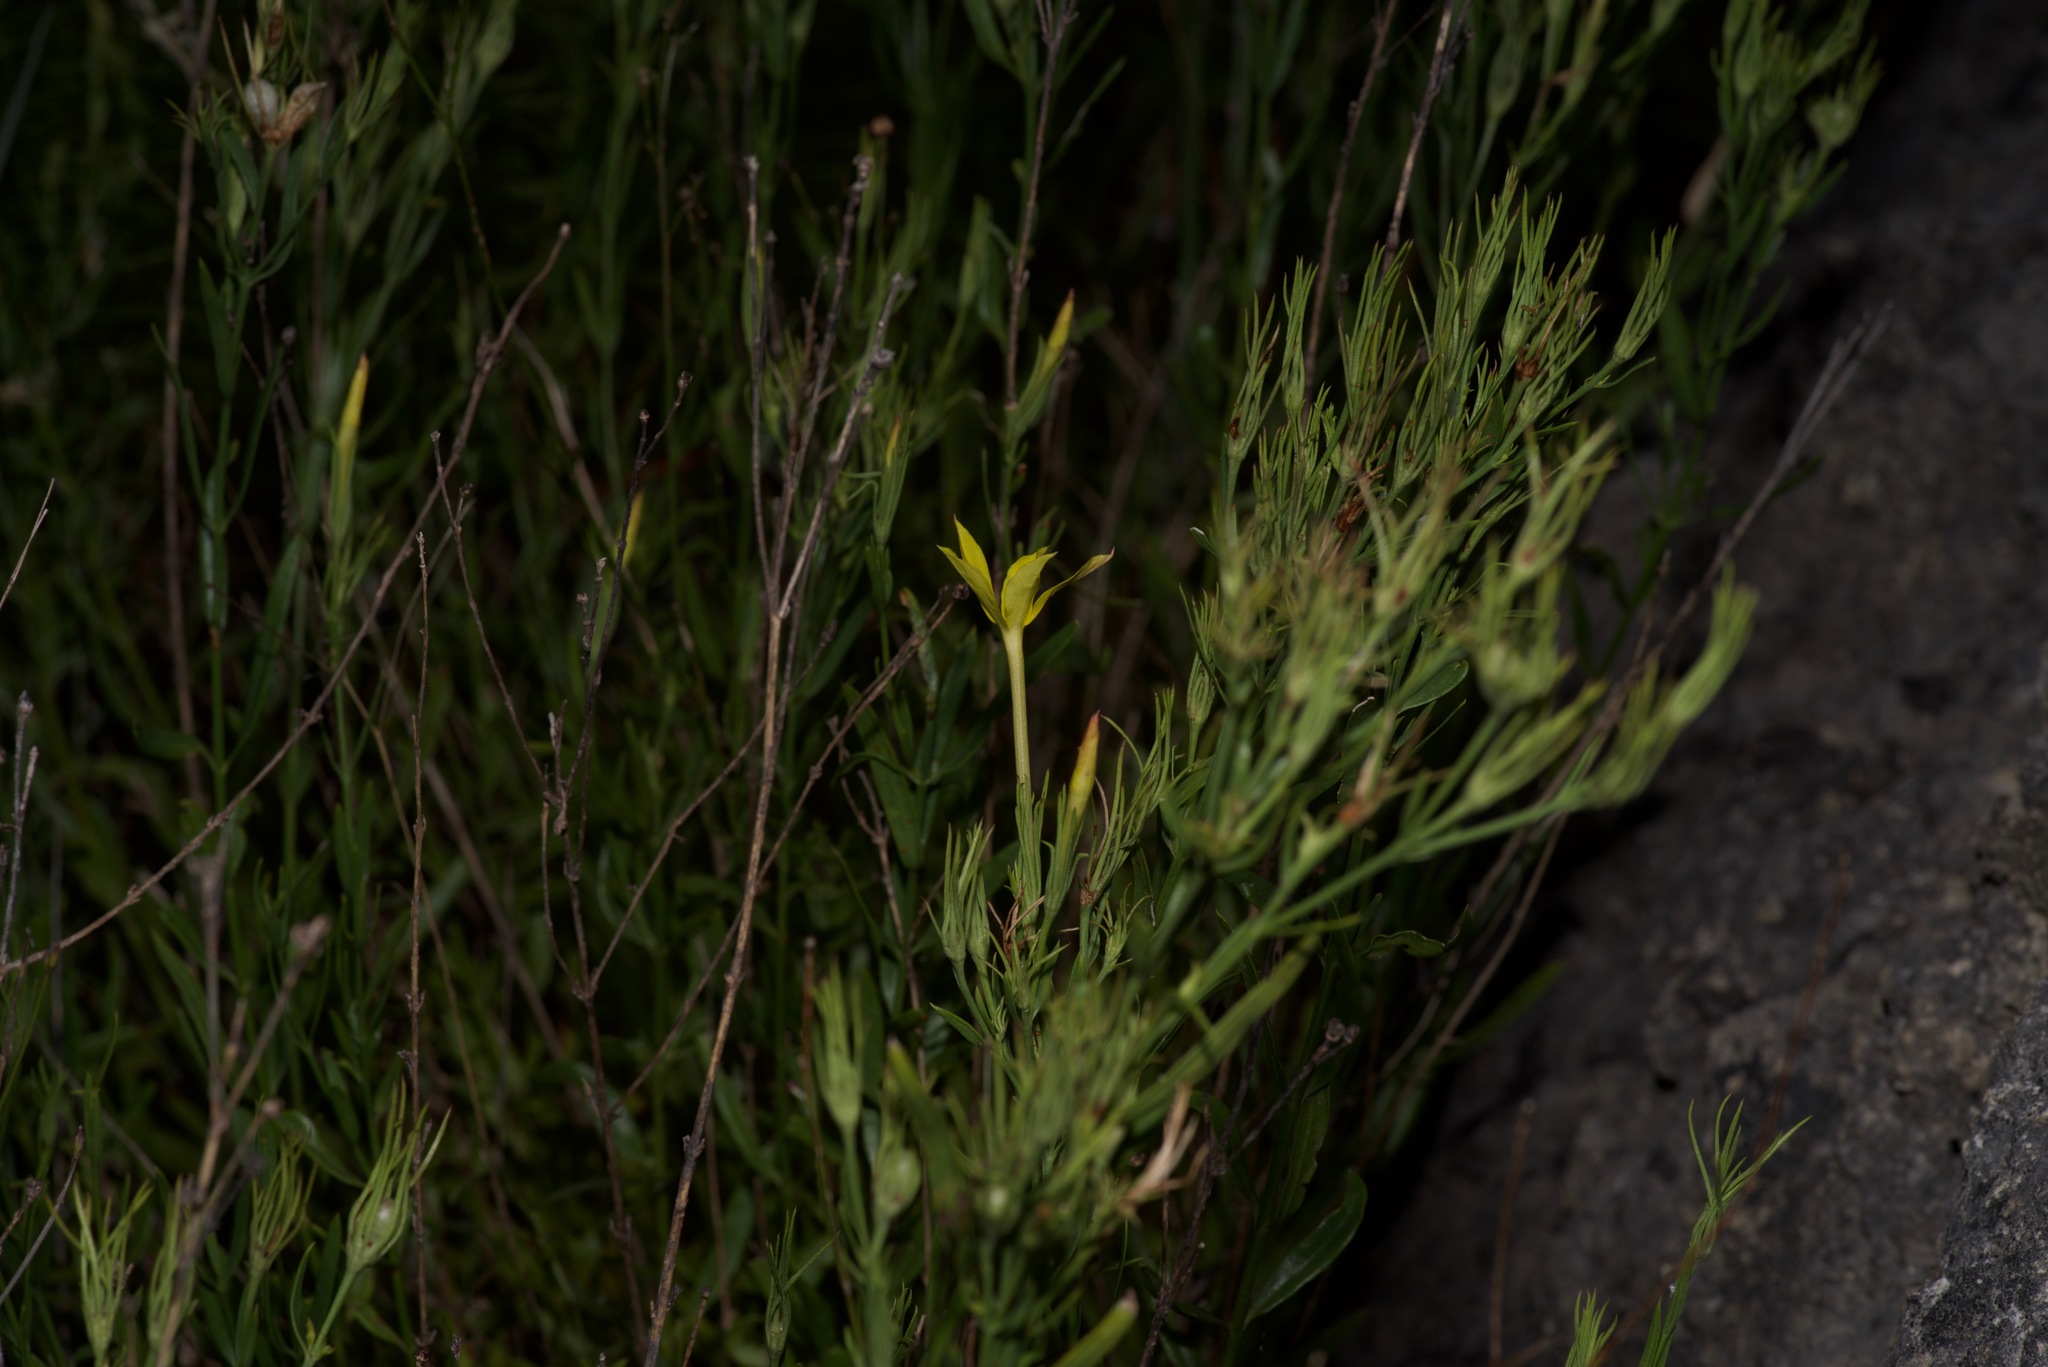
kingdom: Plantae
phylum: Tracheophyta
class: Magnoliopsida
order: Lamiales
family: Oleaceae
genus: Menodora
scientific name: Menodora longiflora
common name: Showy menodora
